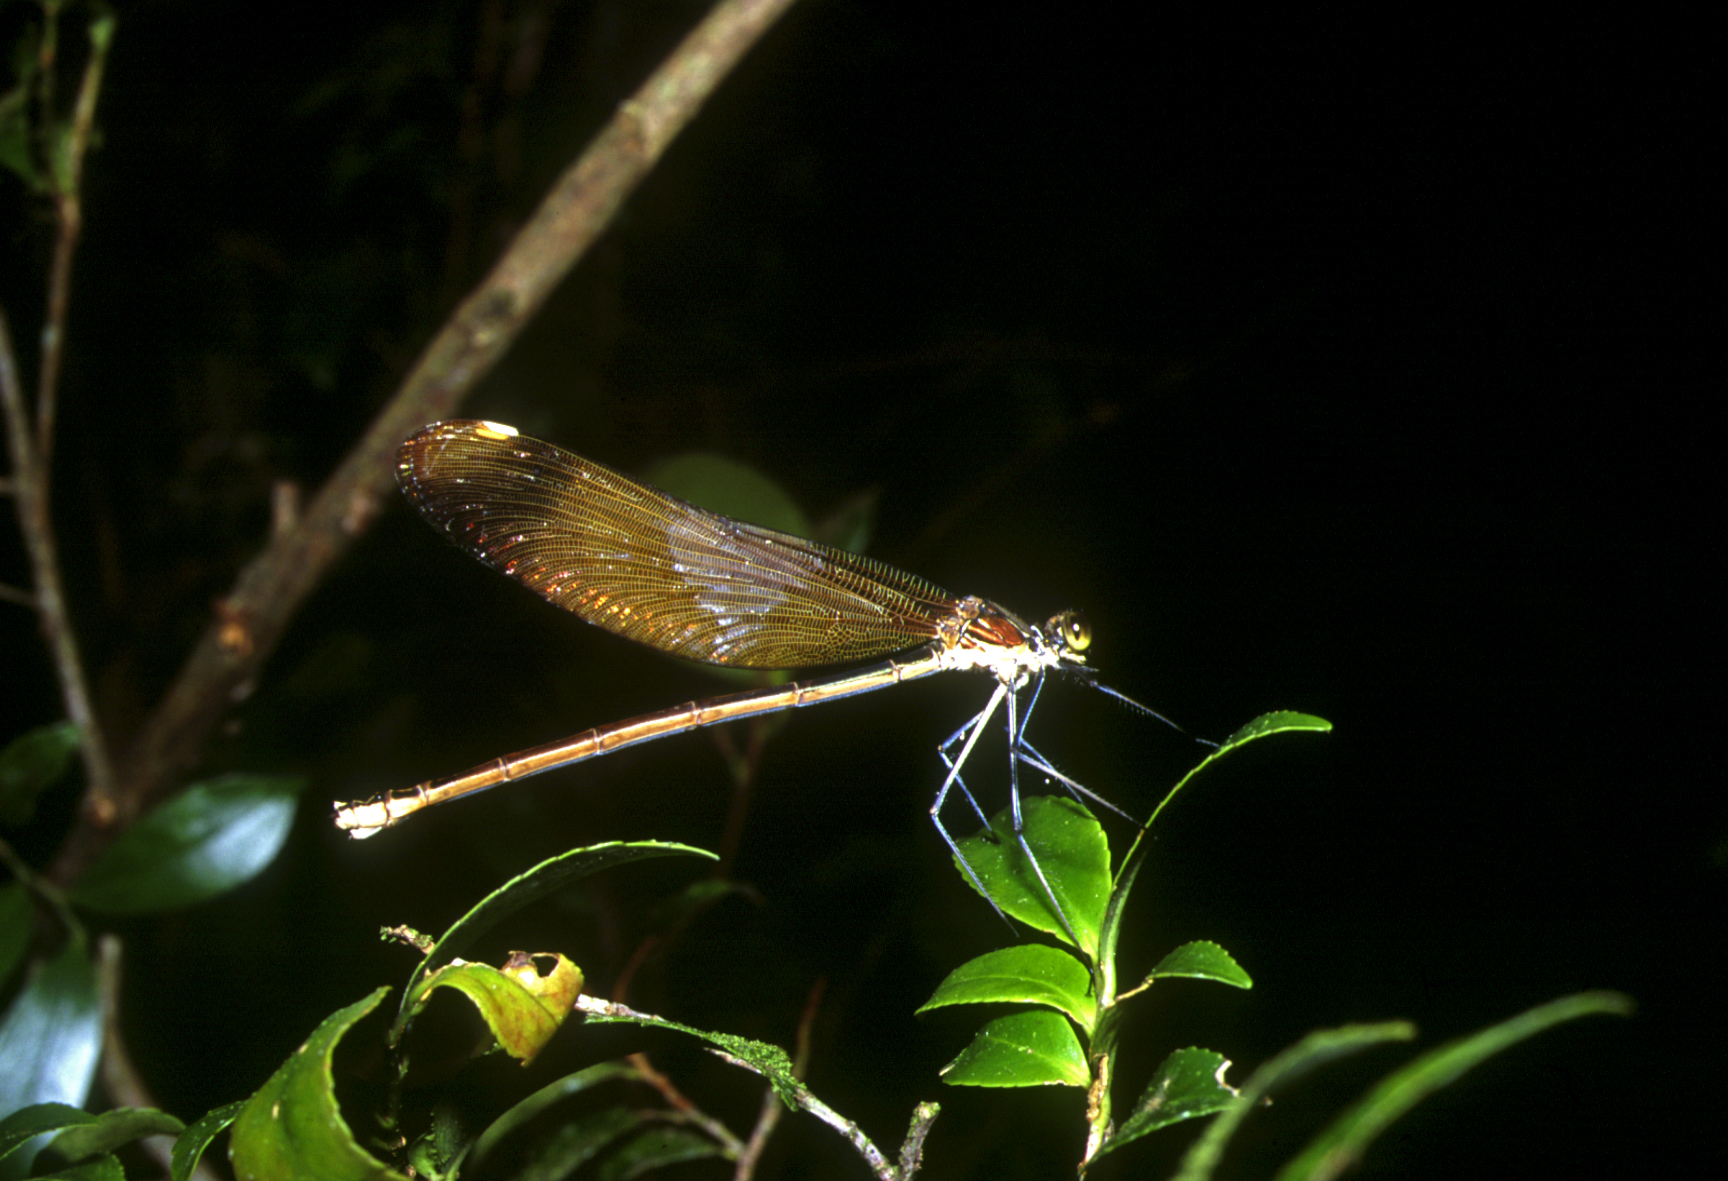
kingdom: Animalia
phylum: Arthropoda
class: Insecta
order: Odonata
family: Calopterygidae
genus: Calopteryx
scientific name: Calopteryx cornelia
